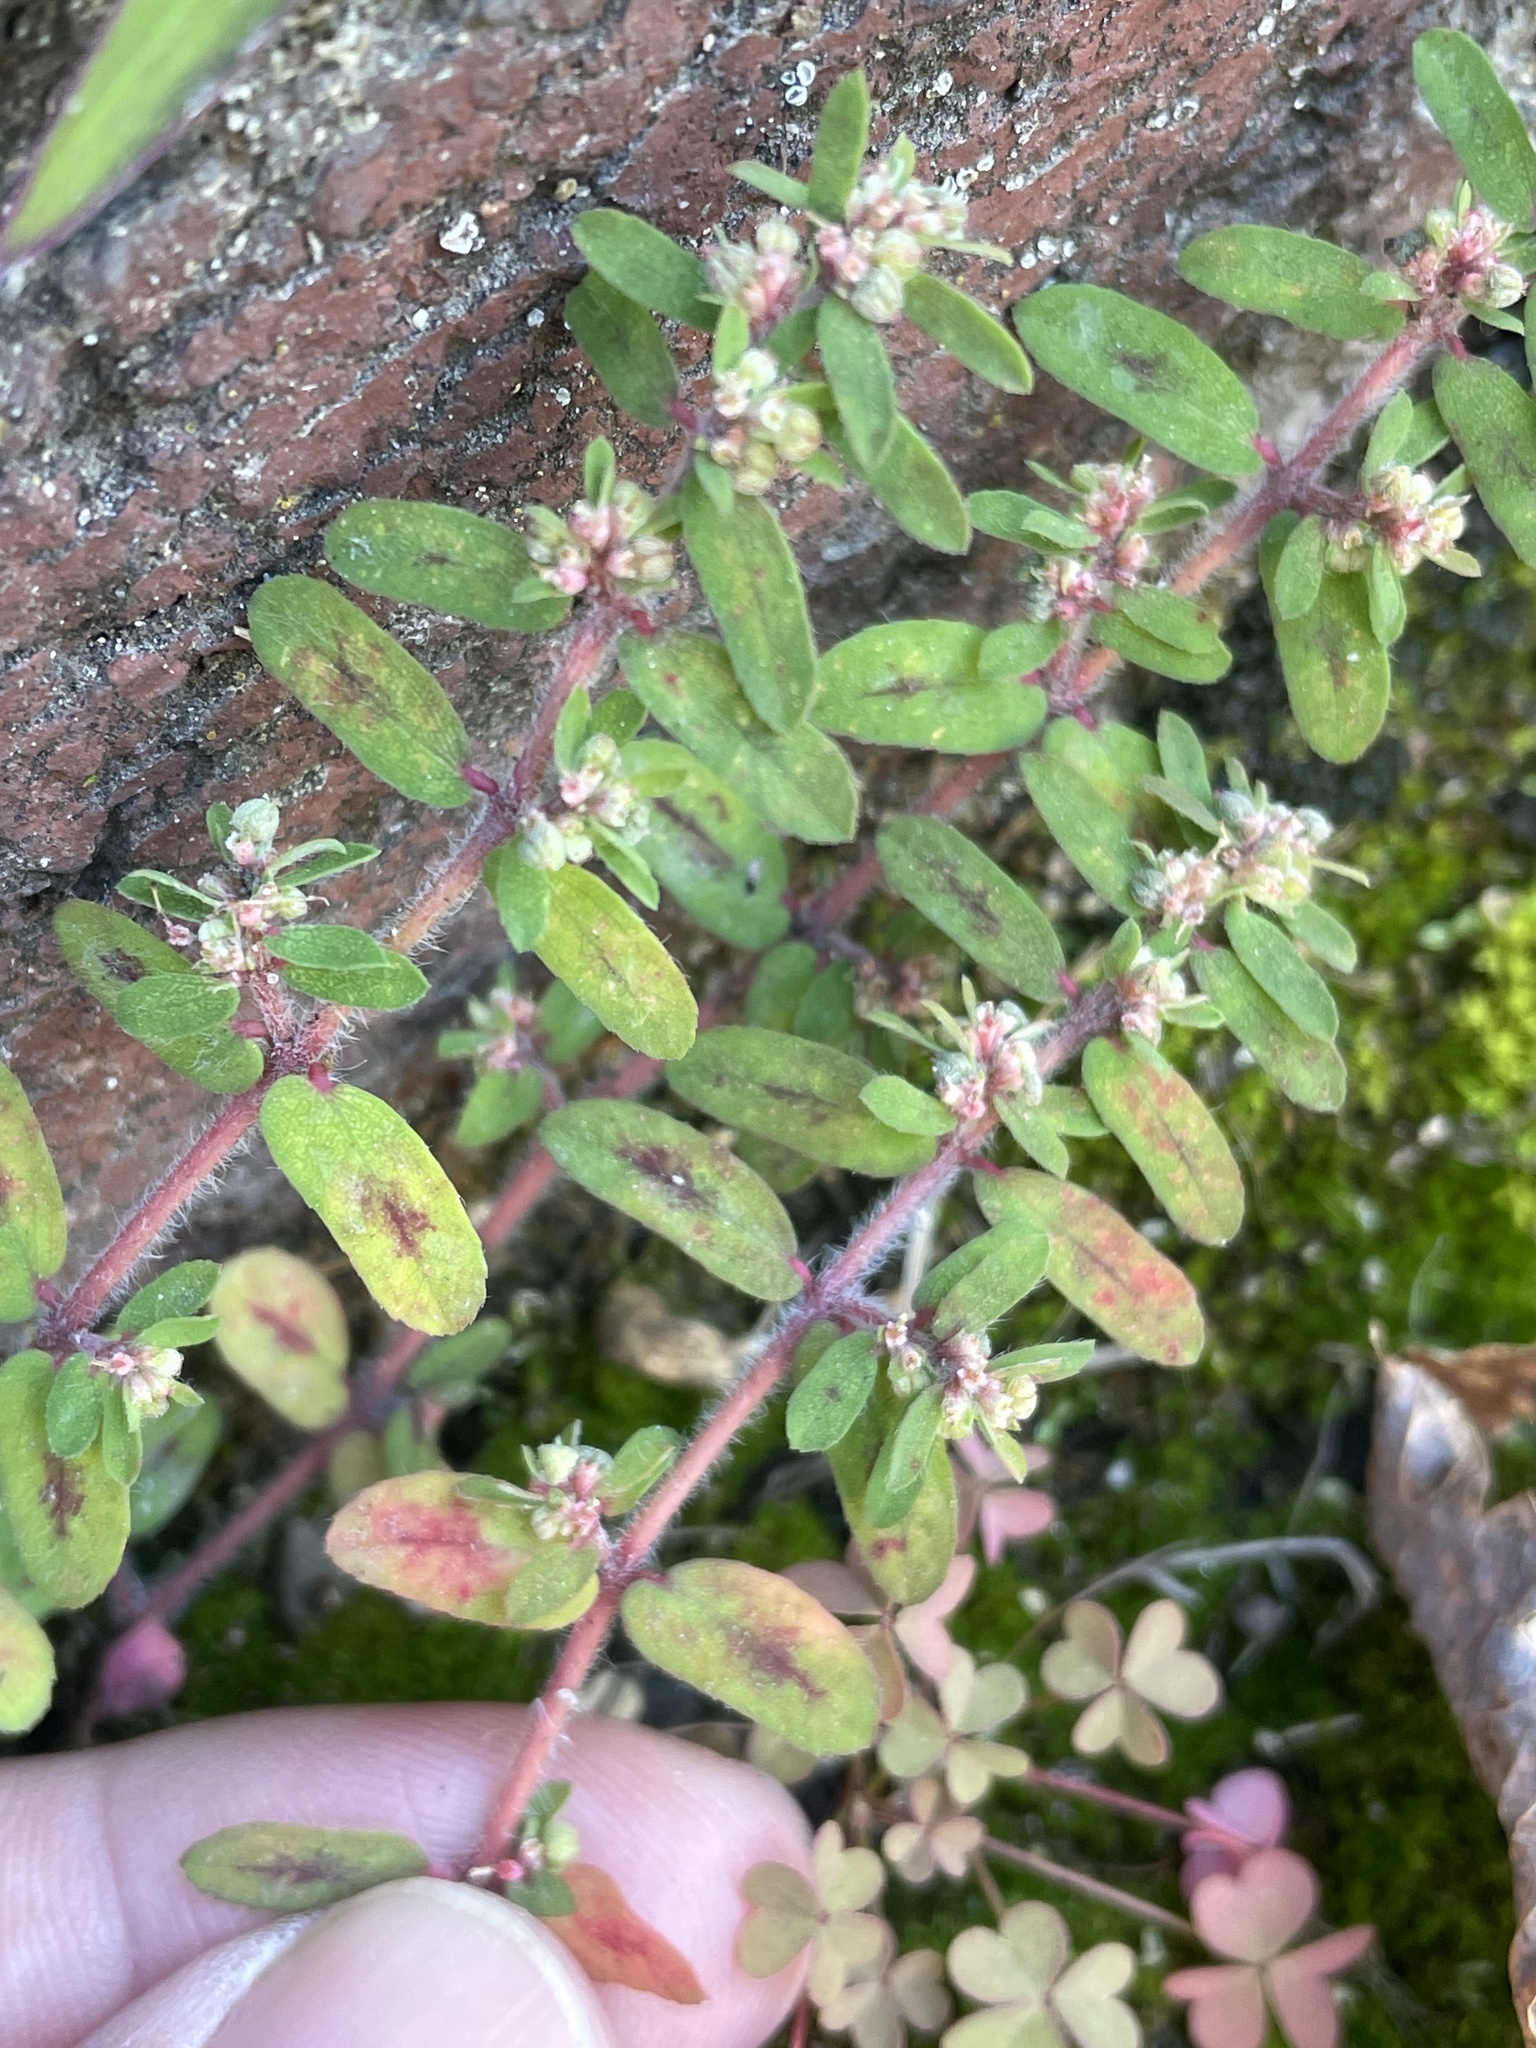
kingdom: Plantae
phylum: Tracheophyta
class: Magnoliopsida
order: Malpighiales
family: Euphorbiaceae
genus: Euphorbia
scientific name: Euphorbia maculata
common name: Spotted spurge
